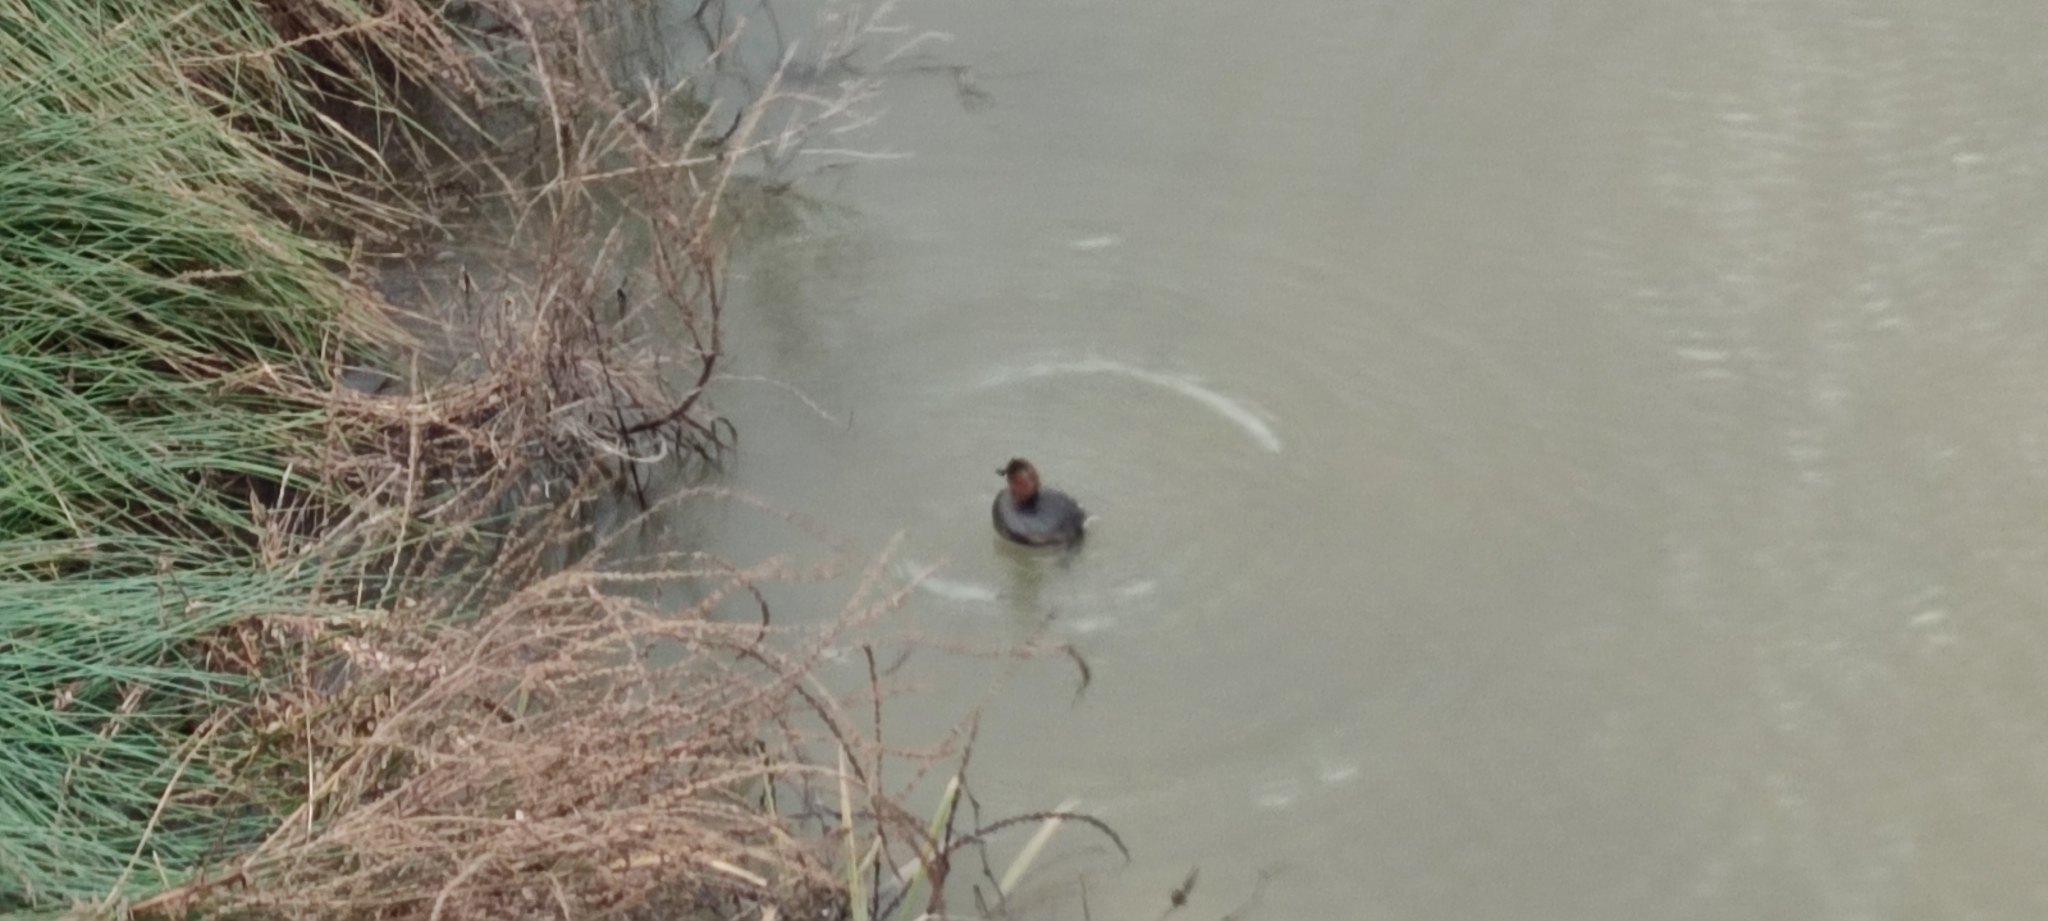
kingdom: Animalia
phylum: Chordata
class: Aves
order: Podicipediformes
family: Podicipedidae
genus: Tachybaptus
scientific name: Tachybaptus ruficollis
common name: Little grebe
